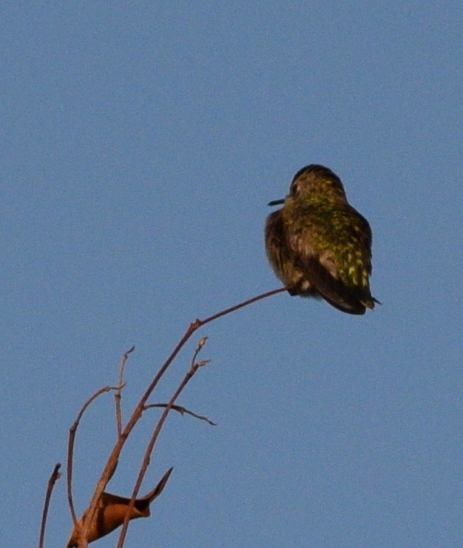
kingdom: Animalia
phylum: Chordata
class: Aves
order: Apodiformes
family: Trochilidae
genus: Calypte
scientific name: Calypte anna
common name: Anna's hummingbird
